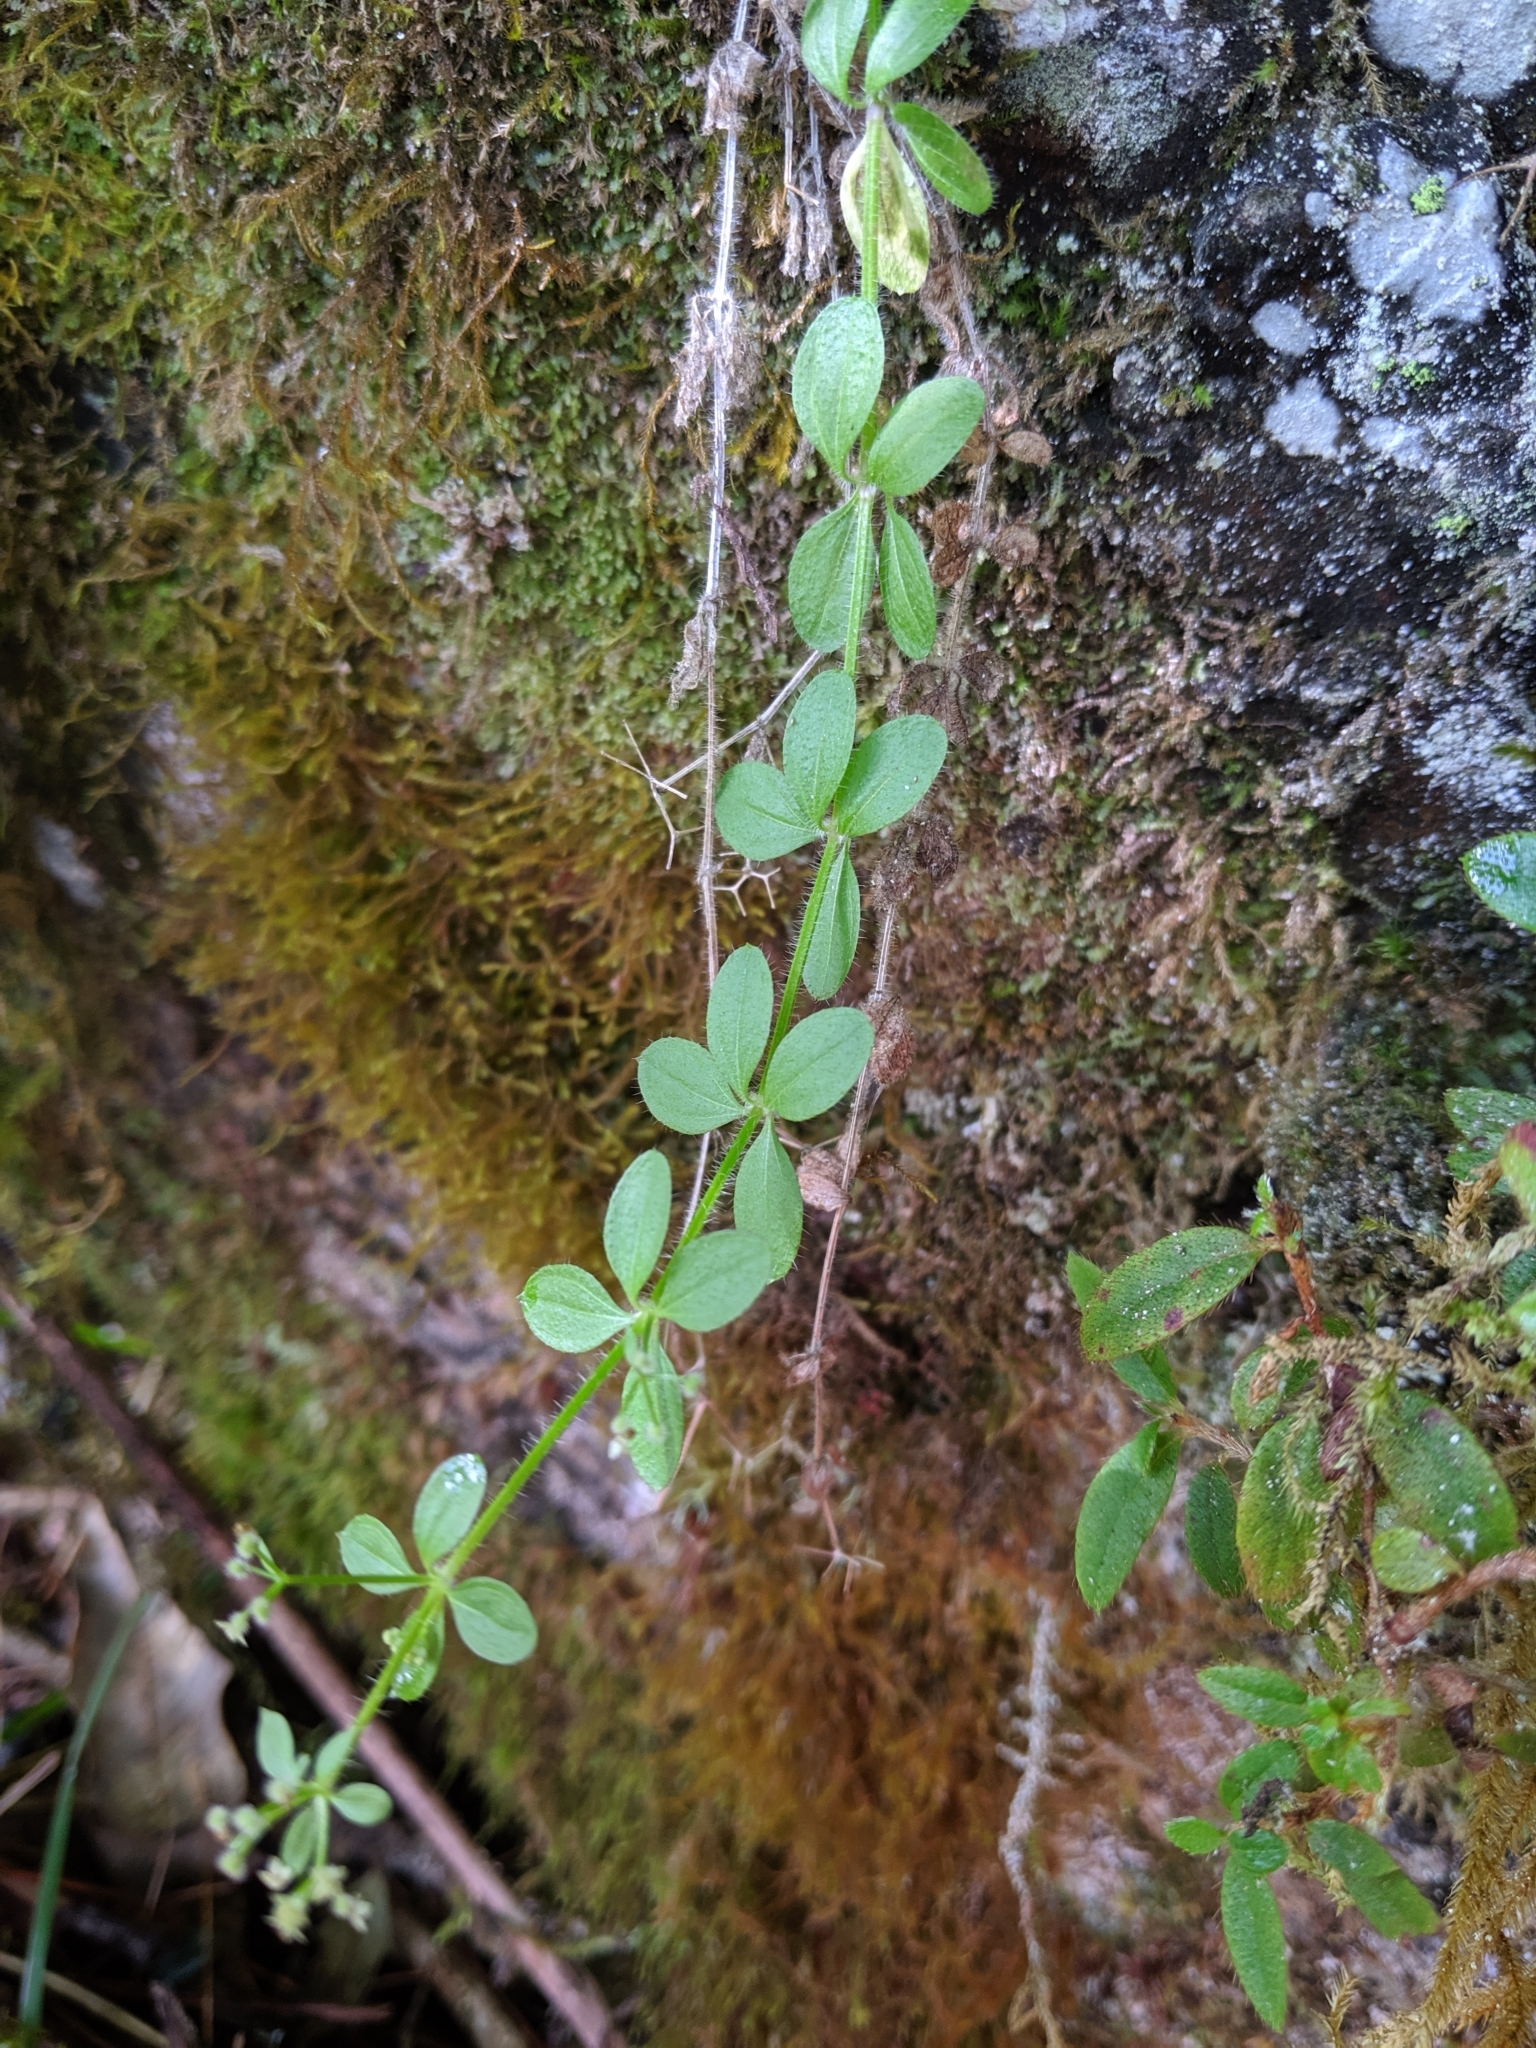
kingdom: Plantae
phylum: Tracheophyta
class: Magnoliopsida
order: Gentianales
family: Rubiaceae
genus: Galium
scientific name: Galium formosense
